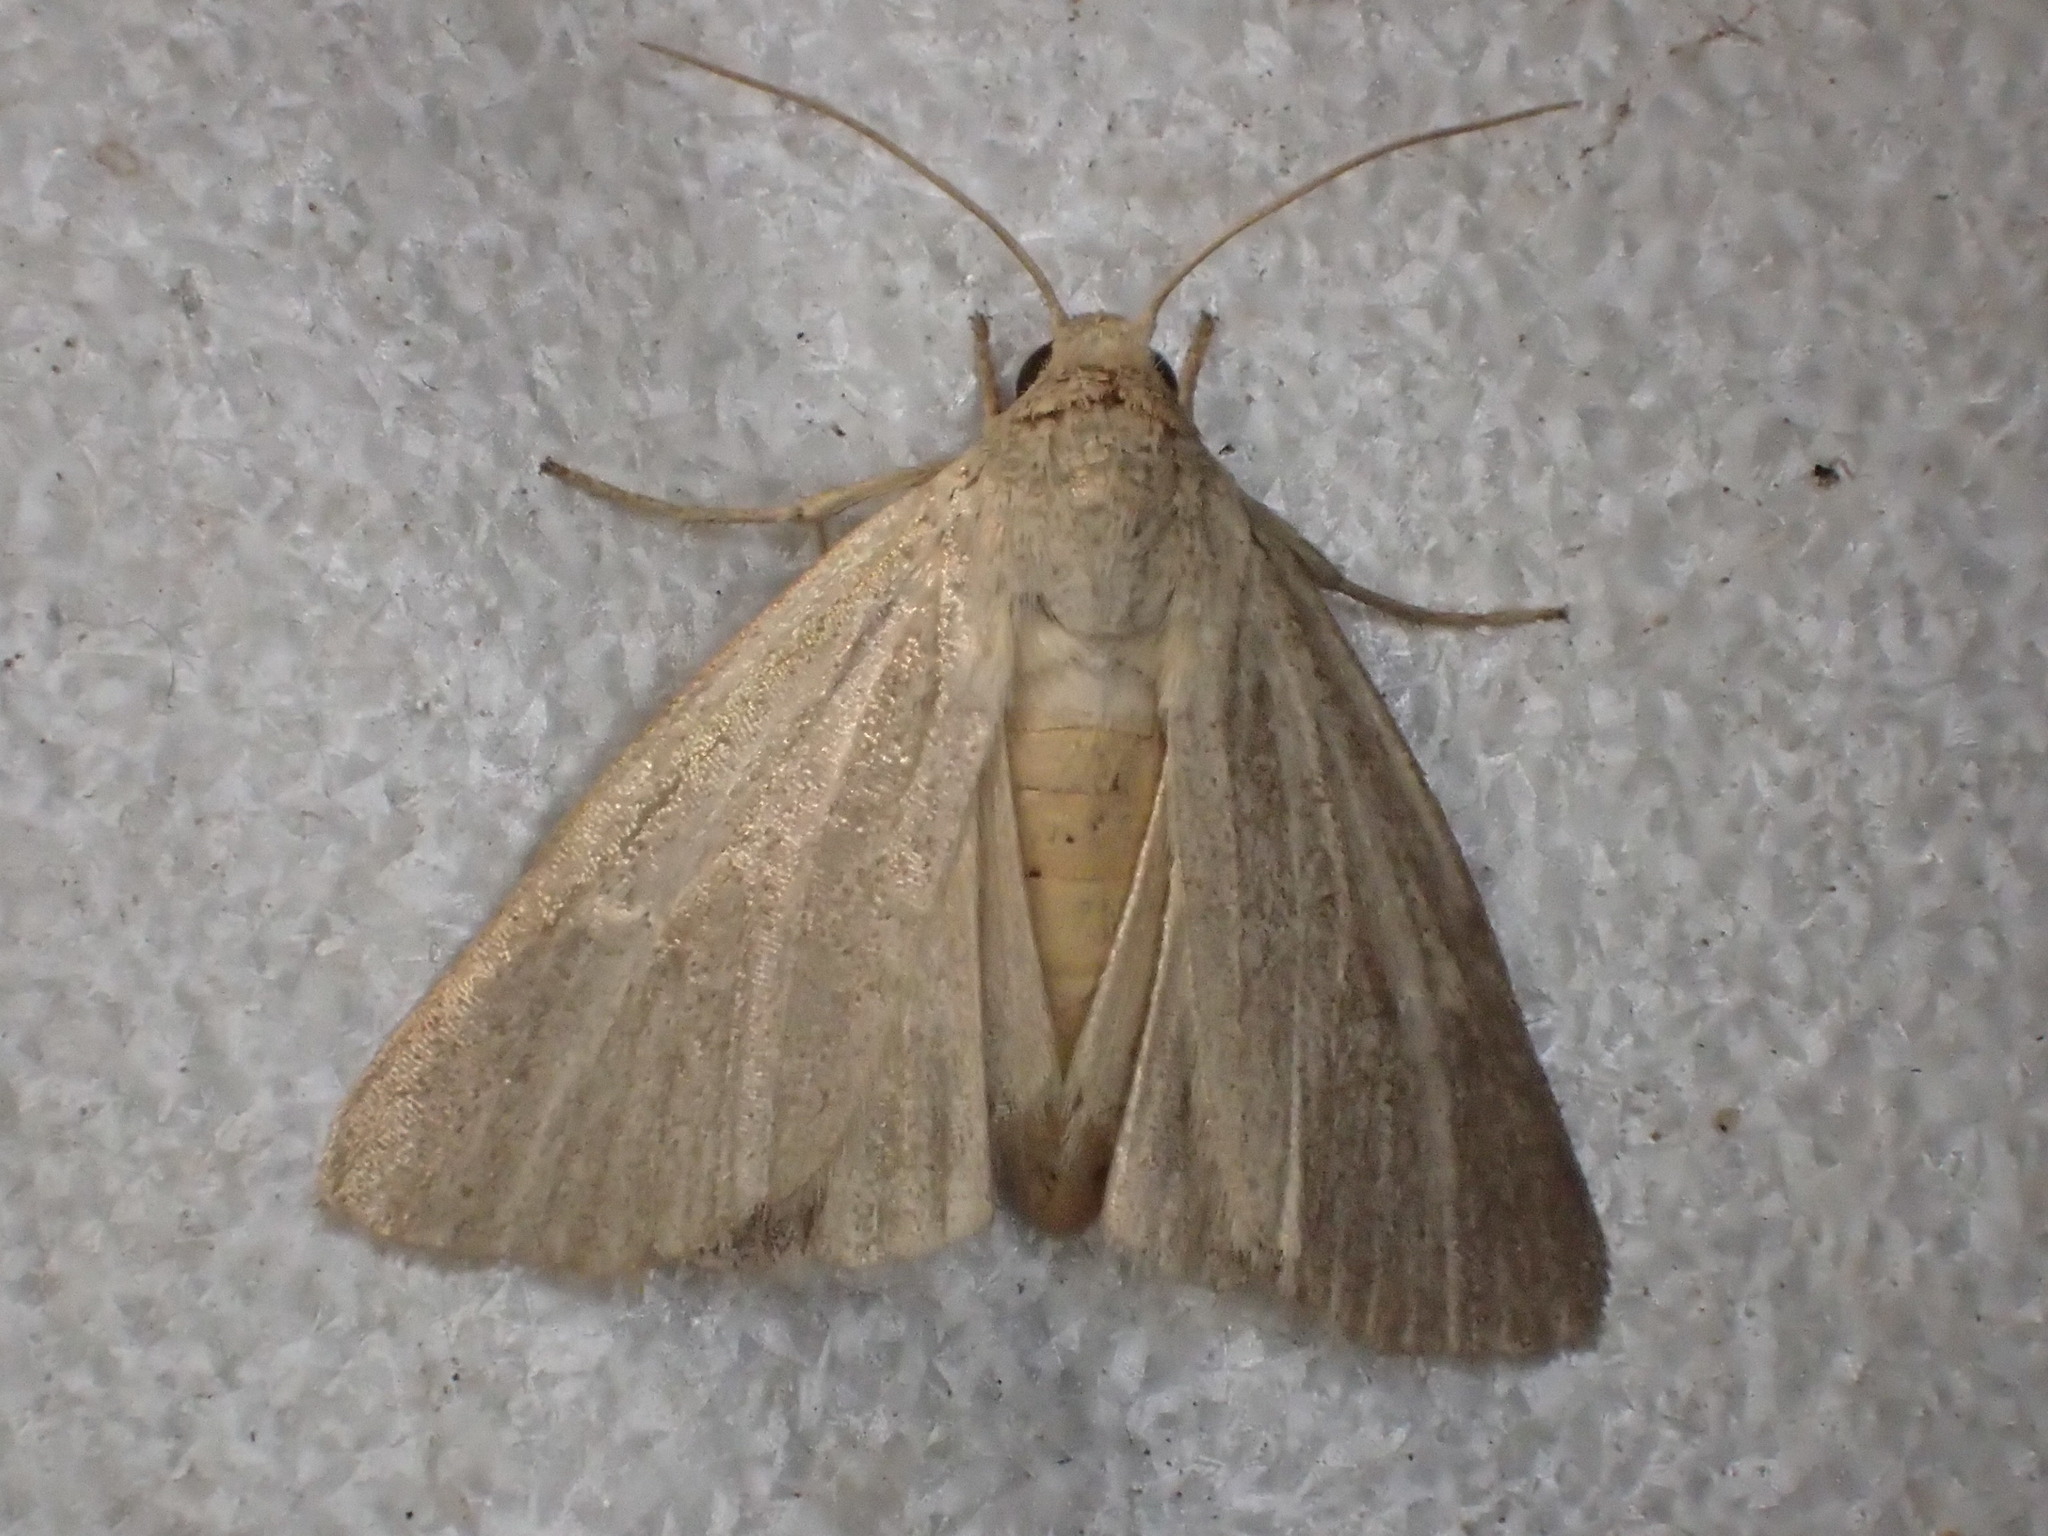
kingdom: Animalia
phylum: Arthropoda
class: Insecta
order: Lepidoptera
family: Noctuidae
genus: Heliocheilus
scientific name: Heliocheilus aleurota
